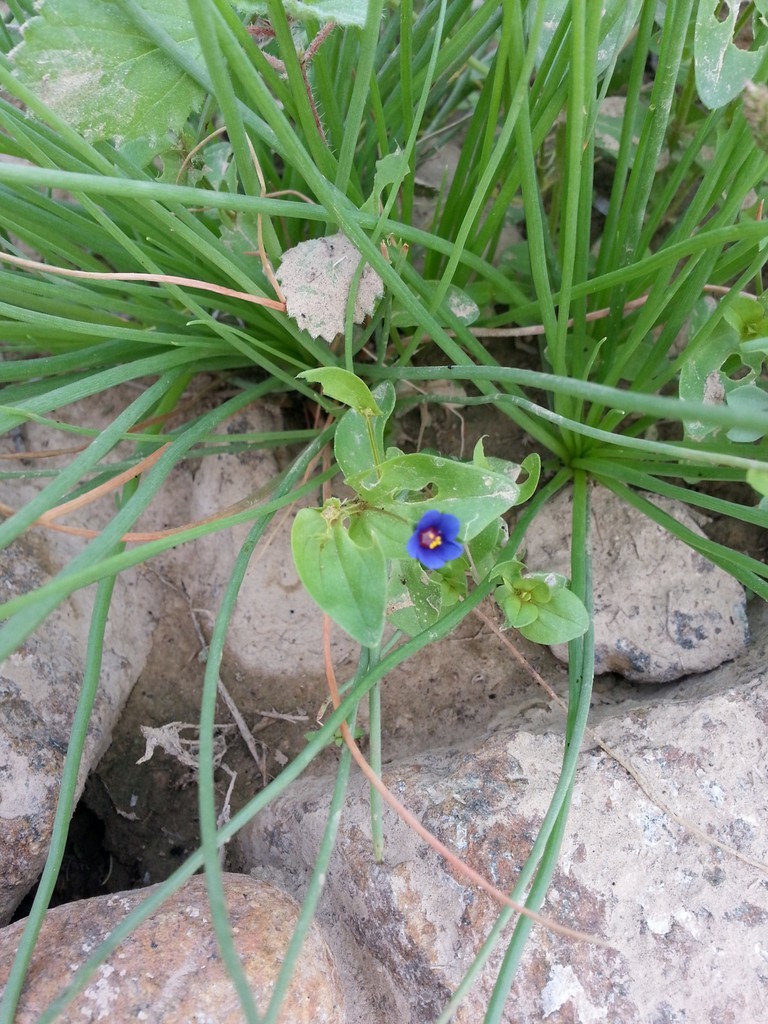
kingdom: Plantae
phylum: Tracheophyta
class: Magnoliopsida
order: Ericales
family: Primulaceae
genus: Lysimachia
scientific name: Lysimachia foemina
